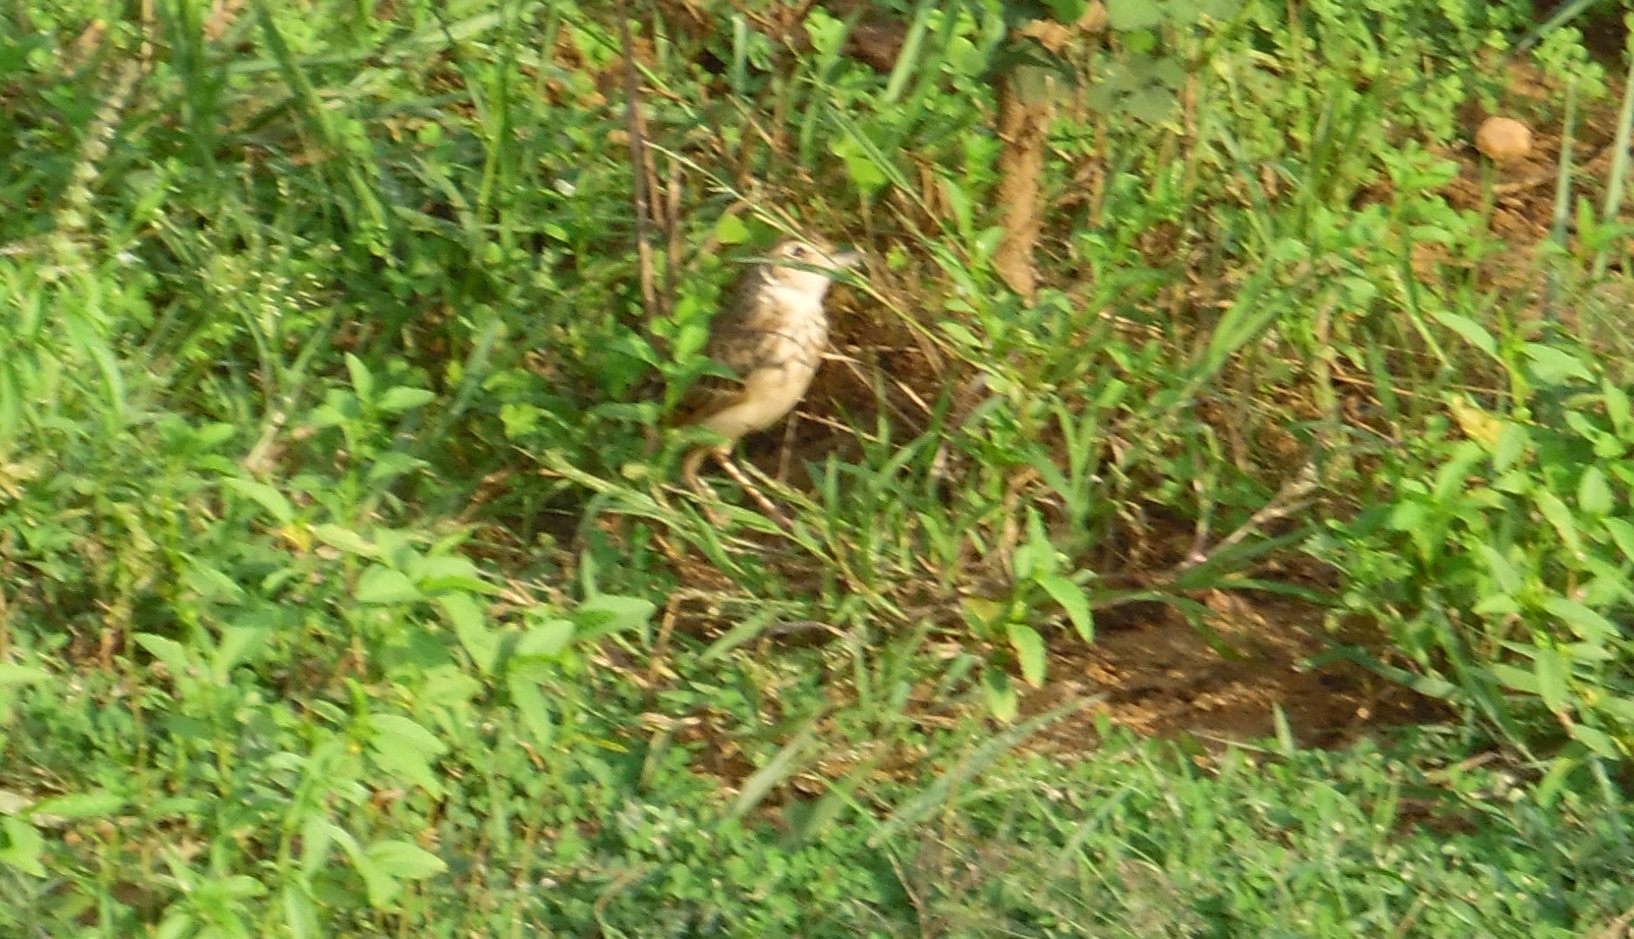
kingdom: Animalia
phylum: Chordata
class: Aves
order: Passeriformes
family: Alaudidae
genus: Mirafra
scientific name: Mirafra affinis
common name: Jerdon's bushlark
